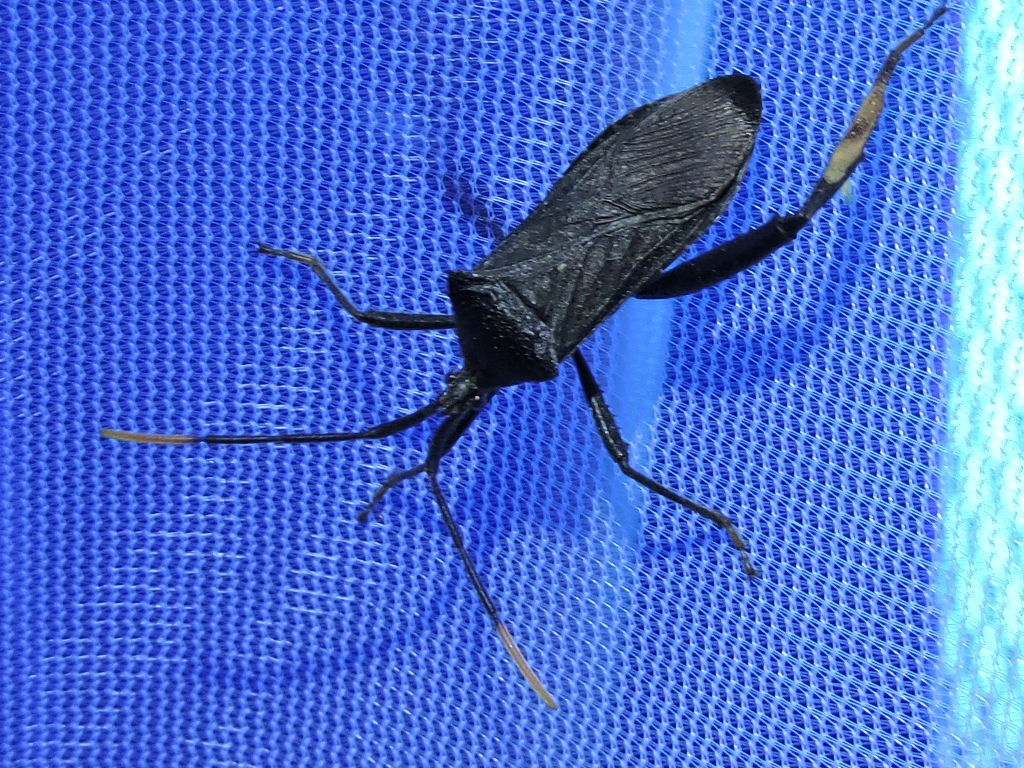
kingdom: Animalia
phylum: Arthropoda
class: Insecta
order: Hemiptera
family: Coreidae
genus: Acanthocephala
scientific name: Acanthocephala terminalis
